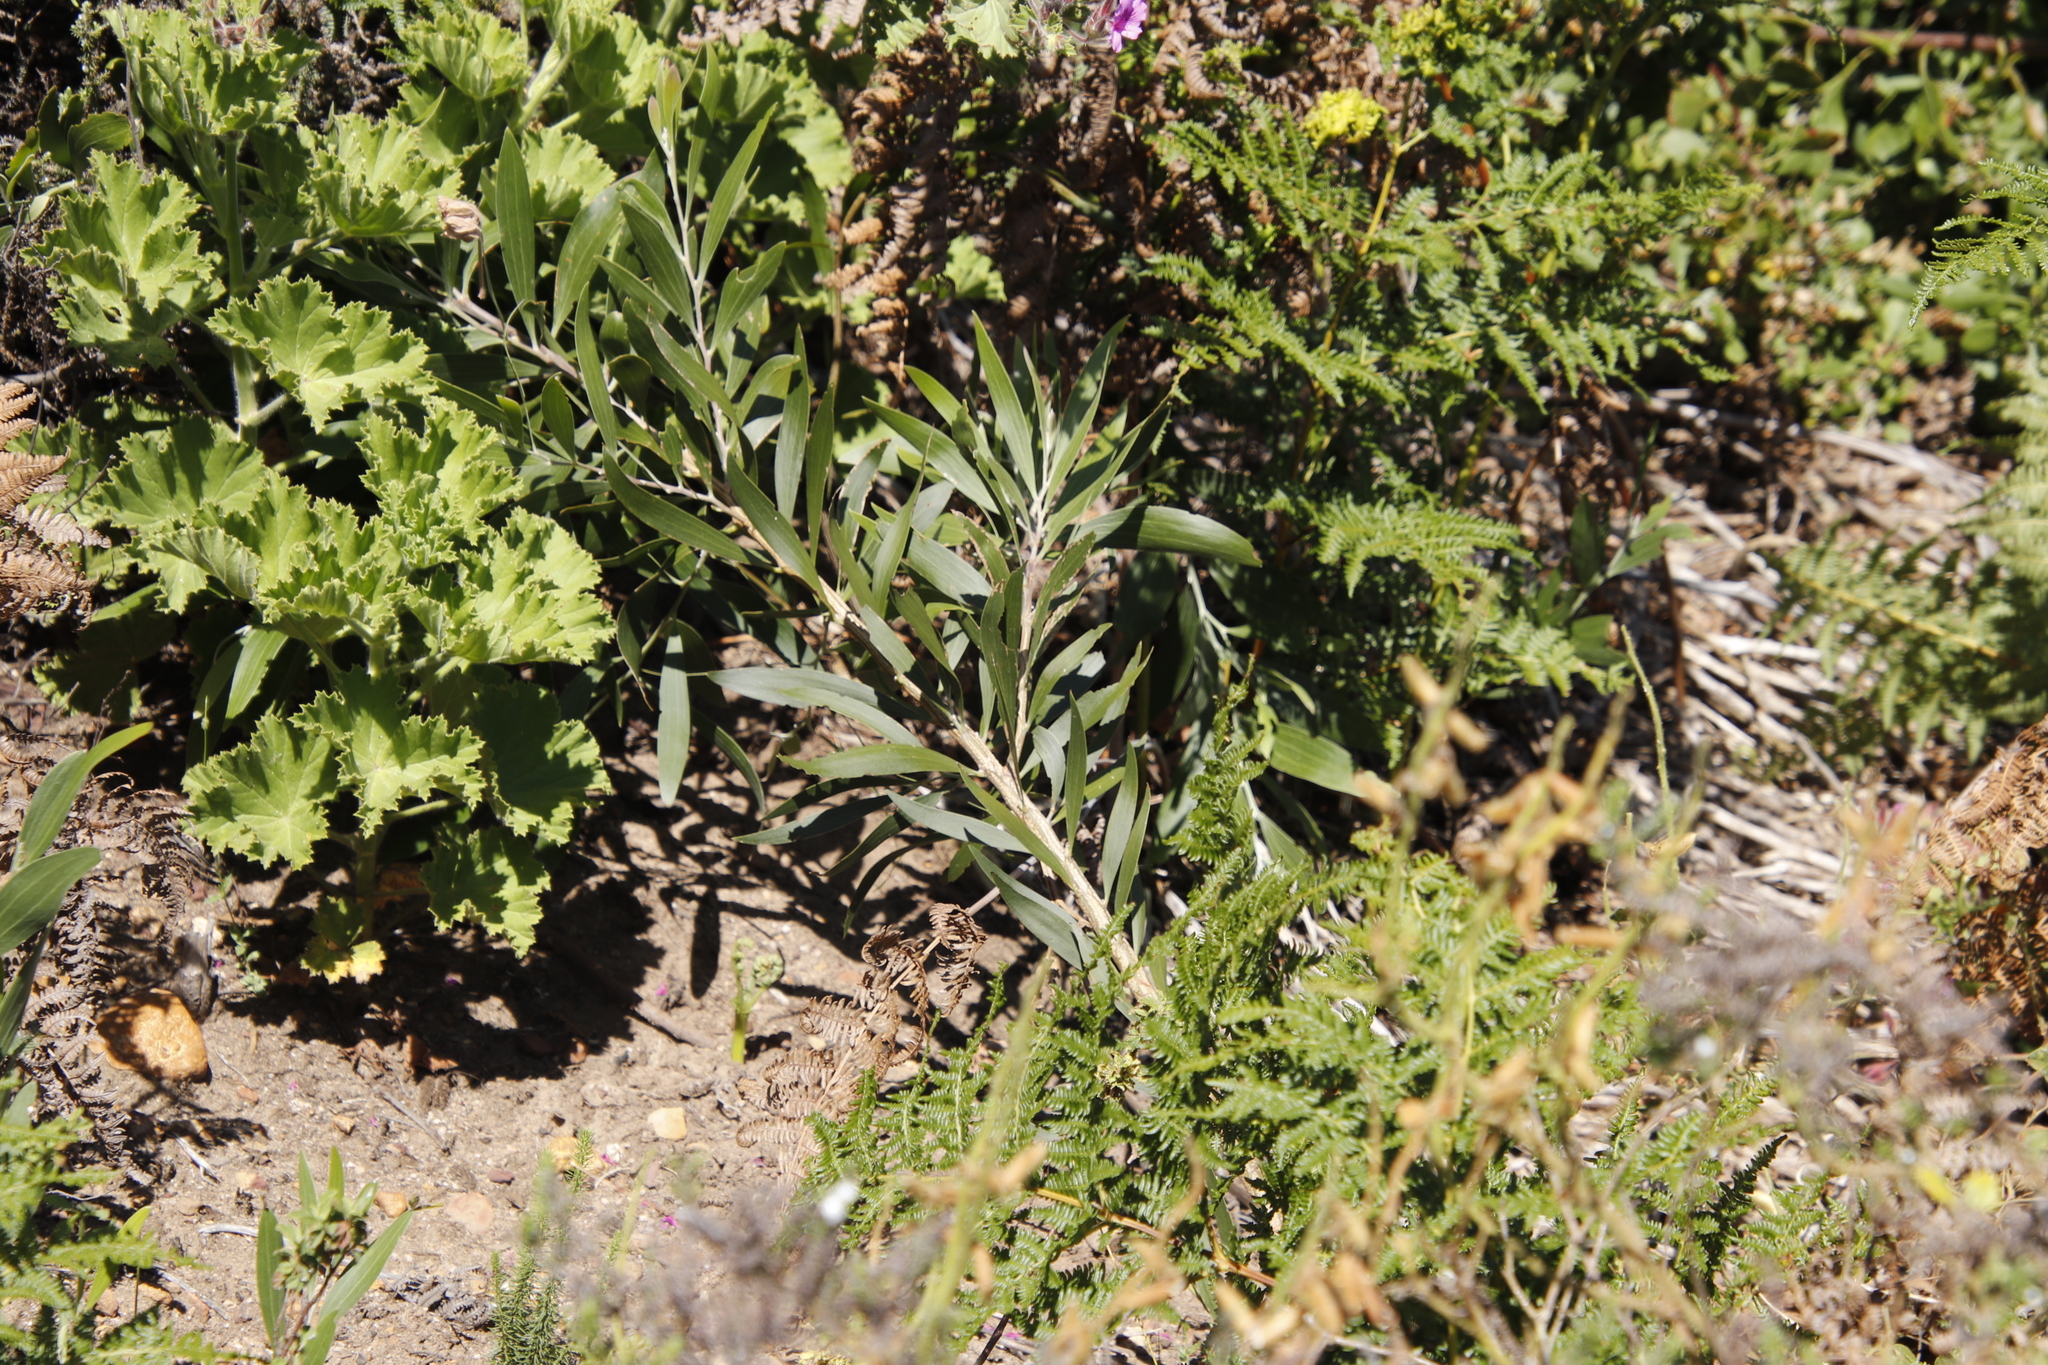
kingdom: Plantae
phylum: Tracheophyta
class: Magnoliopsida
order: Fabales
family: Fabaceae
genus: Acacia
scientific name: Acacia melanoxylon
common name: Blackwood
